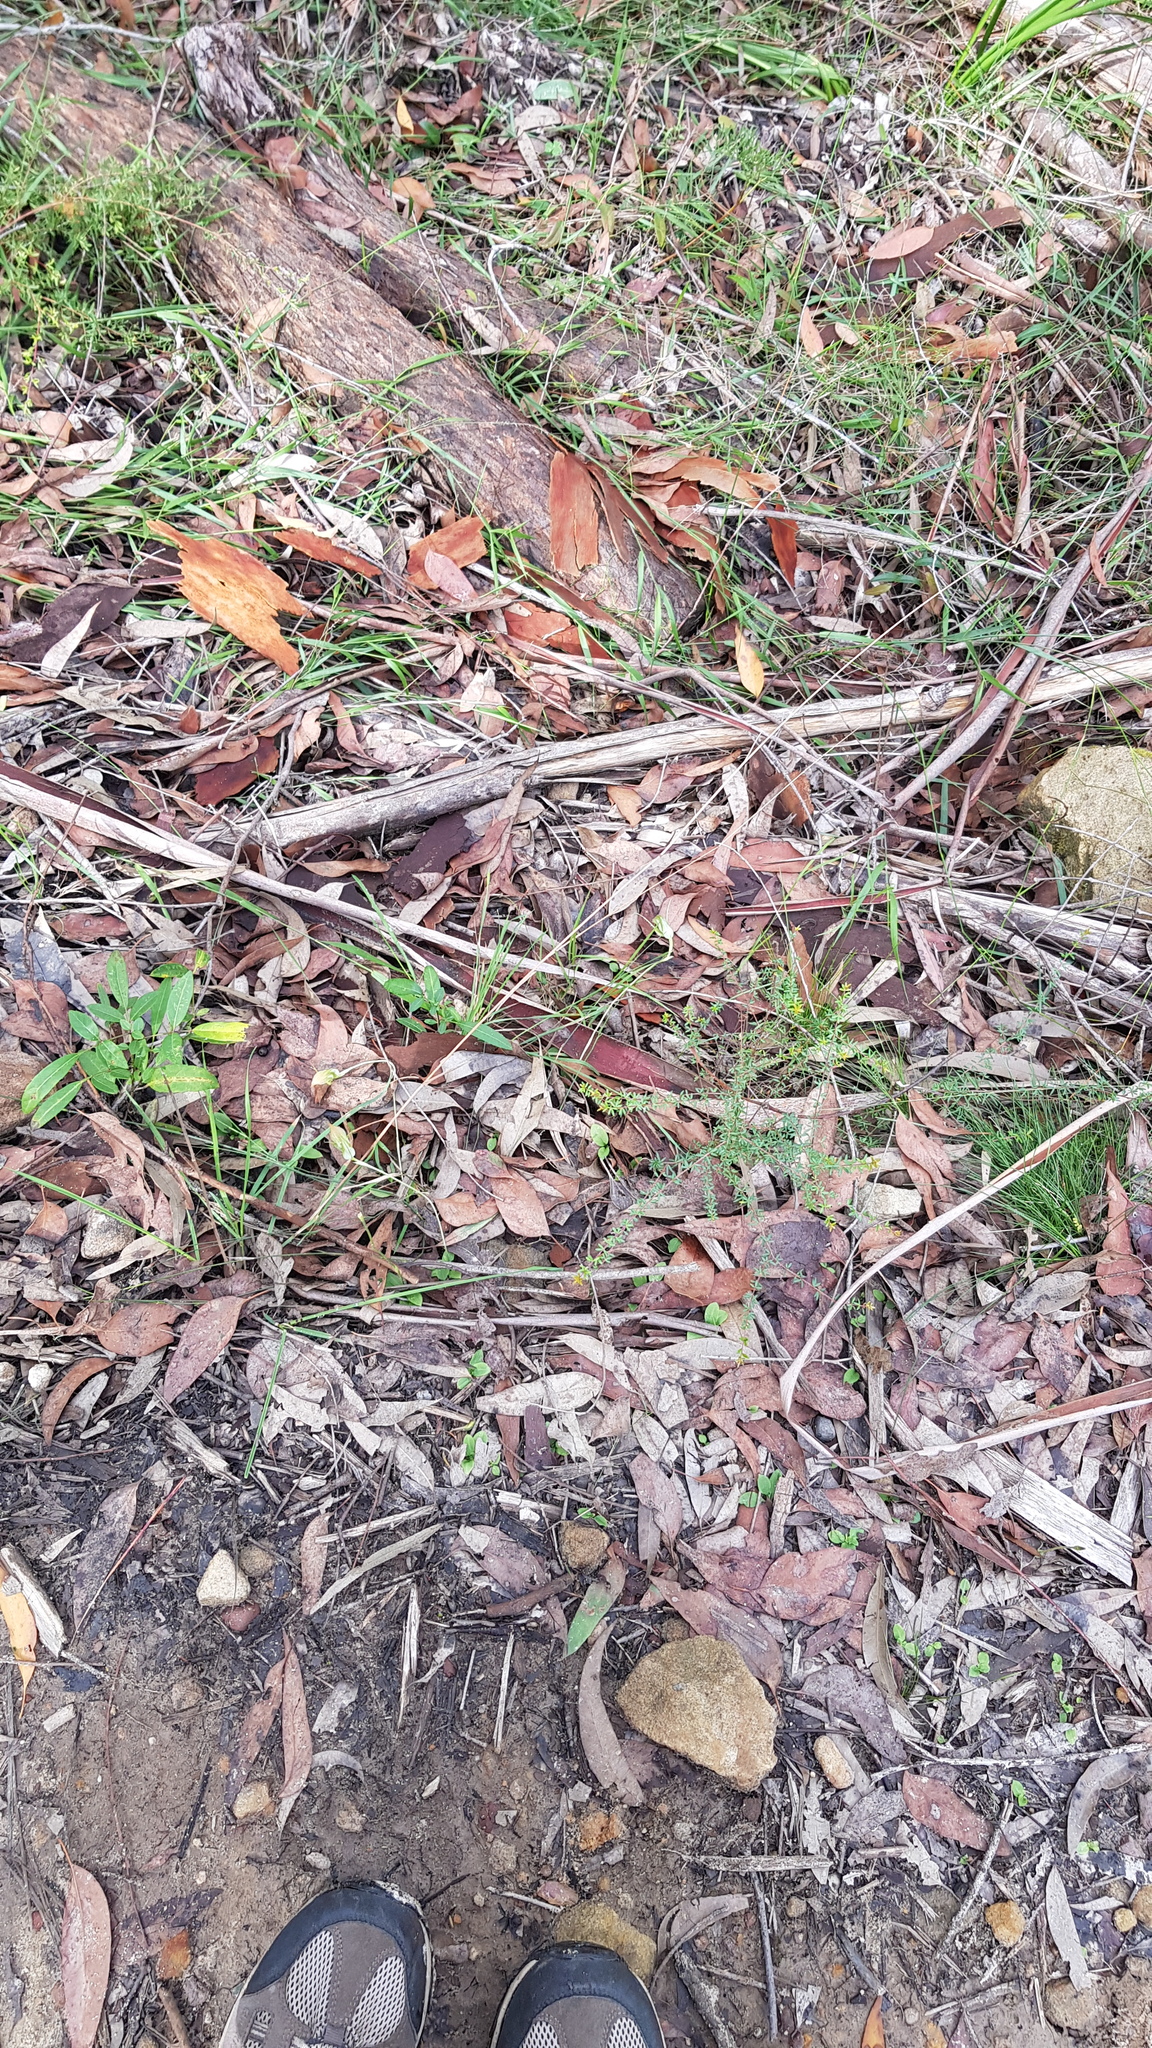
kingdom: Plantae
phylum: Tracheophyta
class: Liliopsida
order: Asparagales
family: Orchidaceae
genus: Pterostylis
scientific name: Pterostylis acuminata
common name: Pointed greenhood
